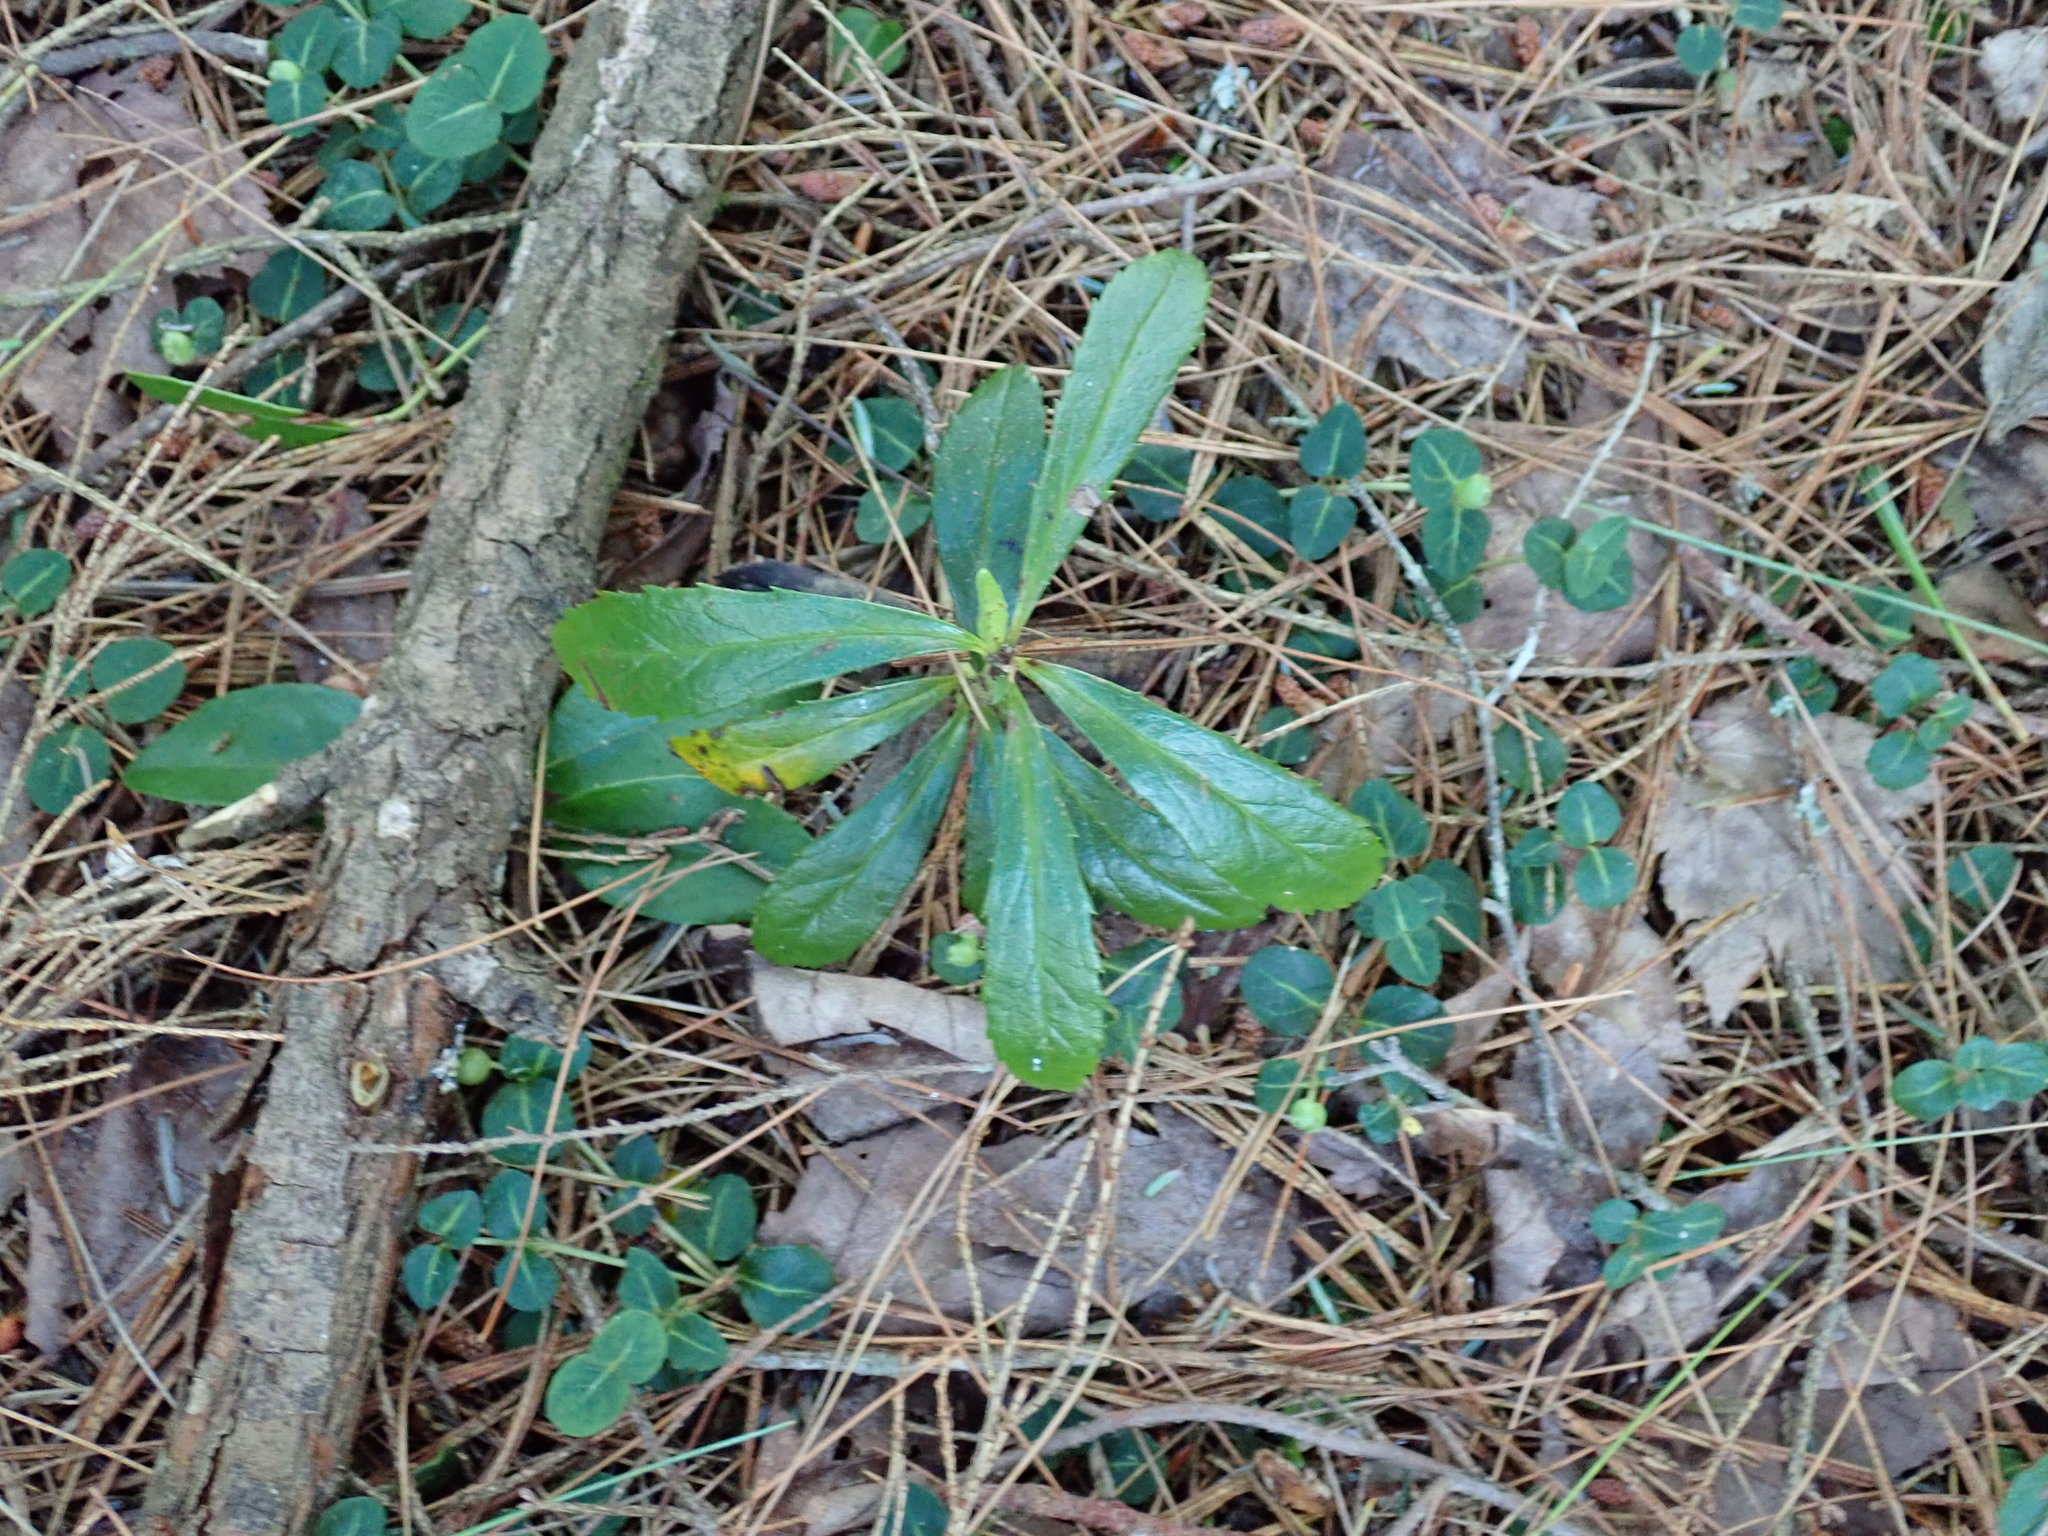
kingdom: Plantae
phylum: Tracheophyta
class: Magnoliopsida
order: Ericales
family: Ericaceae
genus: Chimaphila
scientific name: Chimaphila umbellata
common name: Pipsissewa
